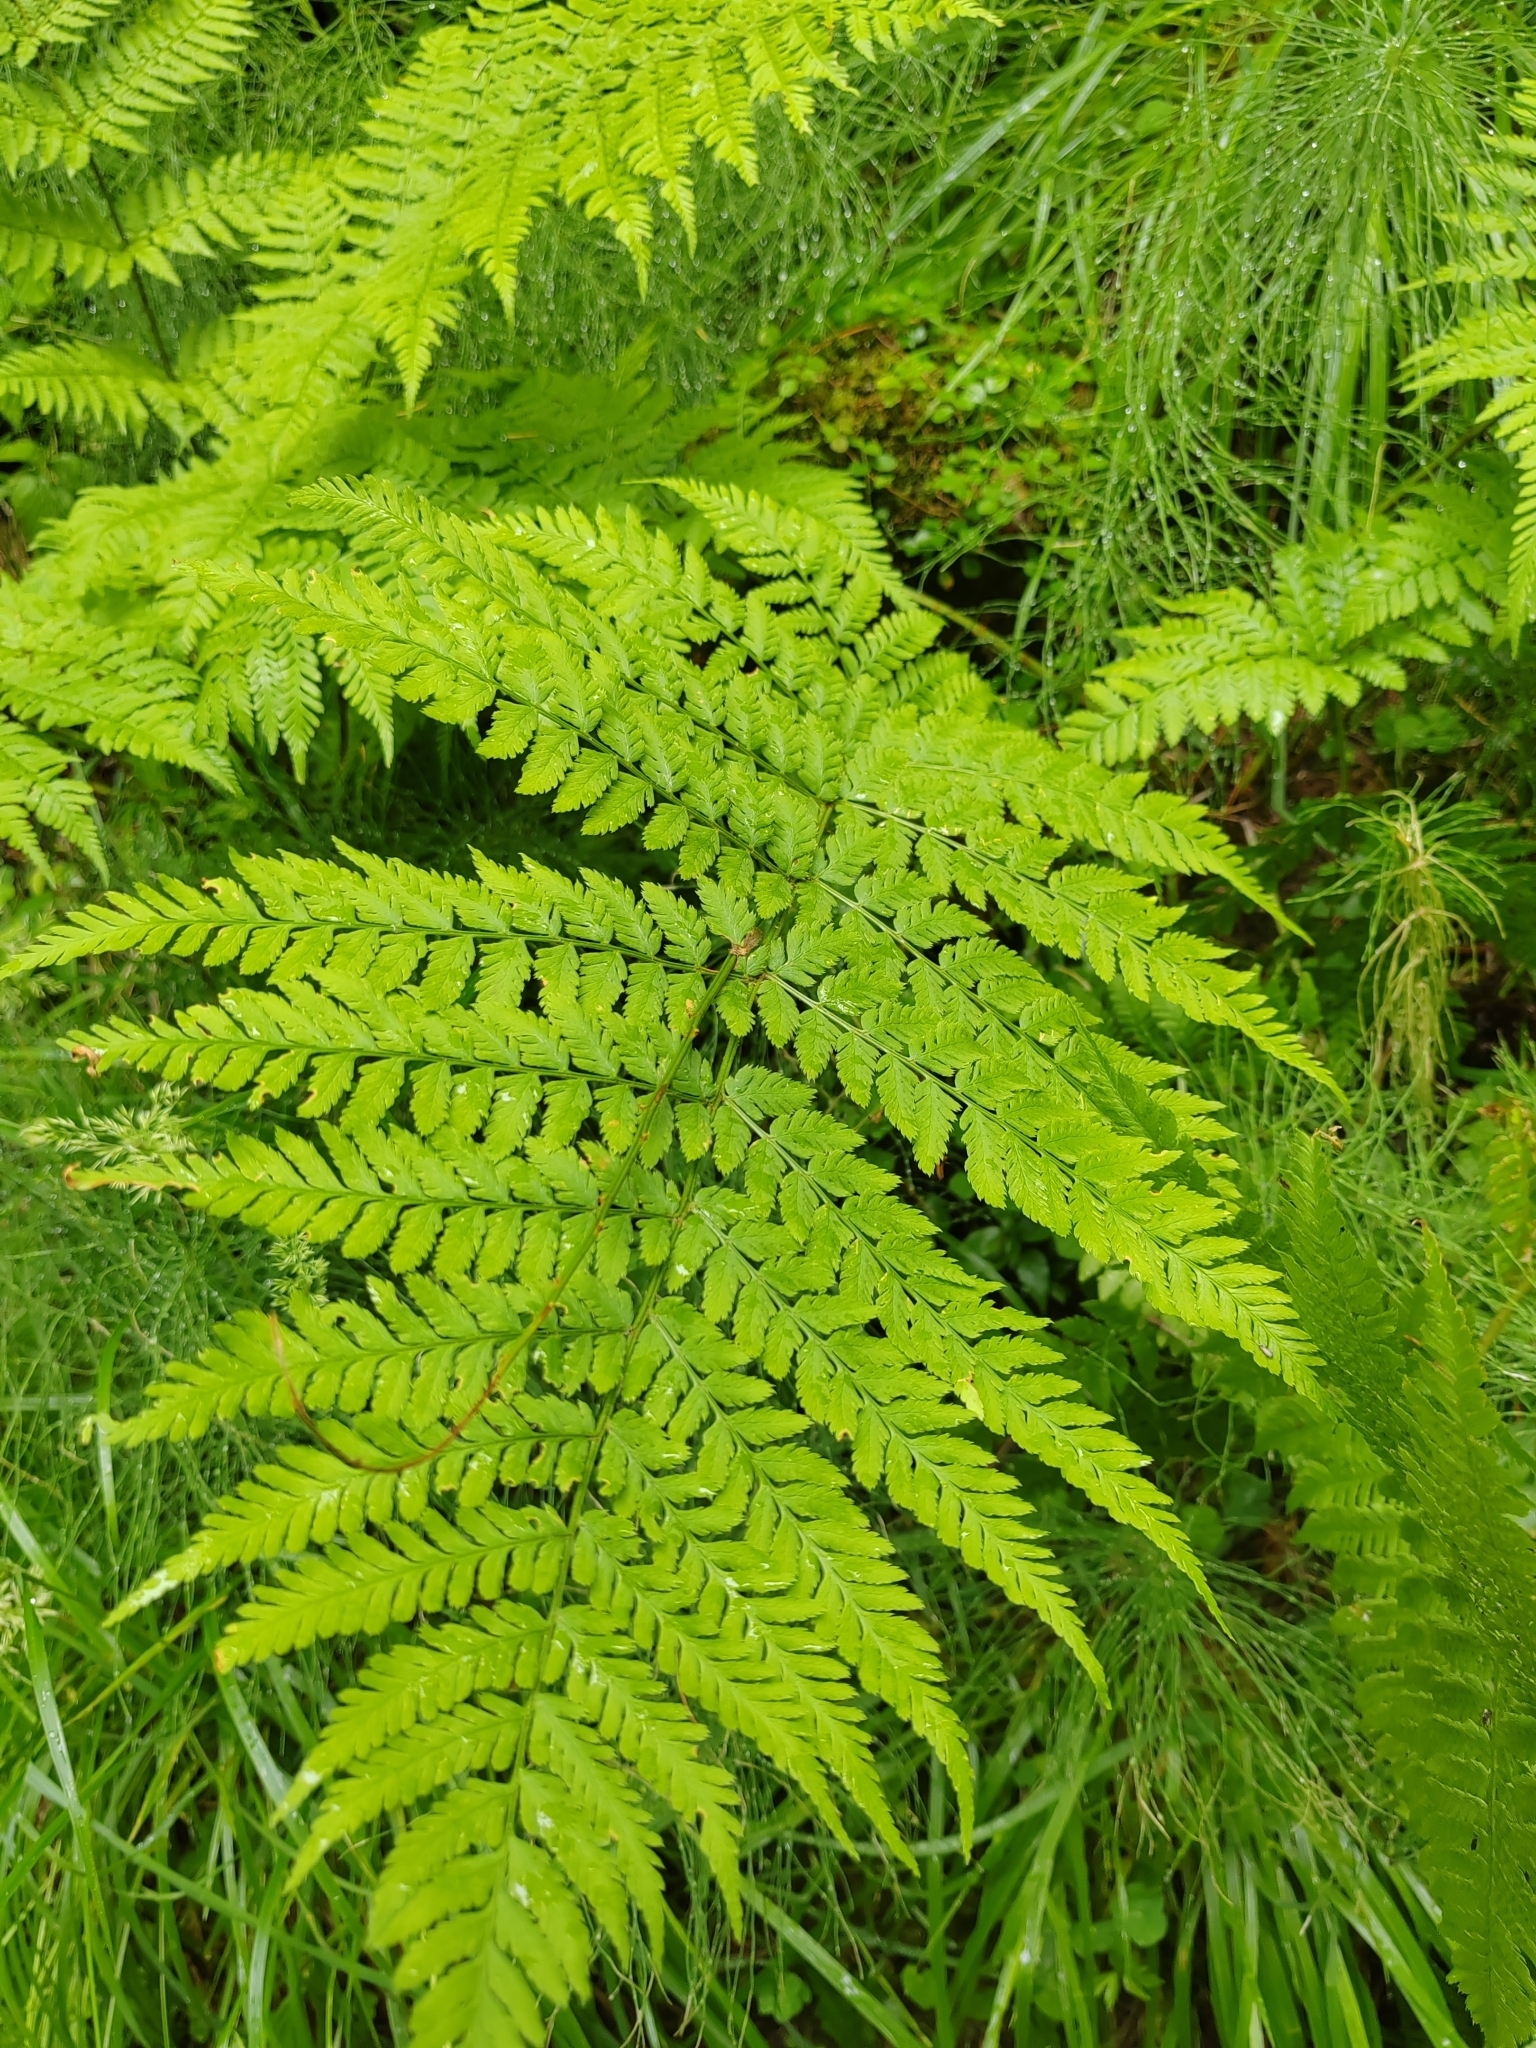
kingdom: Plantae
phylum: Tracheophyta
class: Polypodiopsida
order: Polypodiales
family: Dryopteridaceae
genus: Dryopteris
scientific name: Dryopteris expansa
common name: Northern buckler fern
